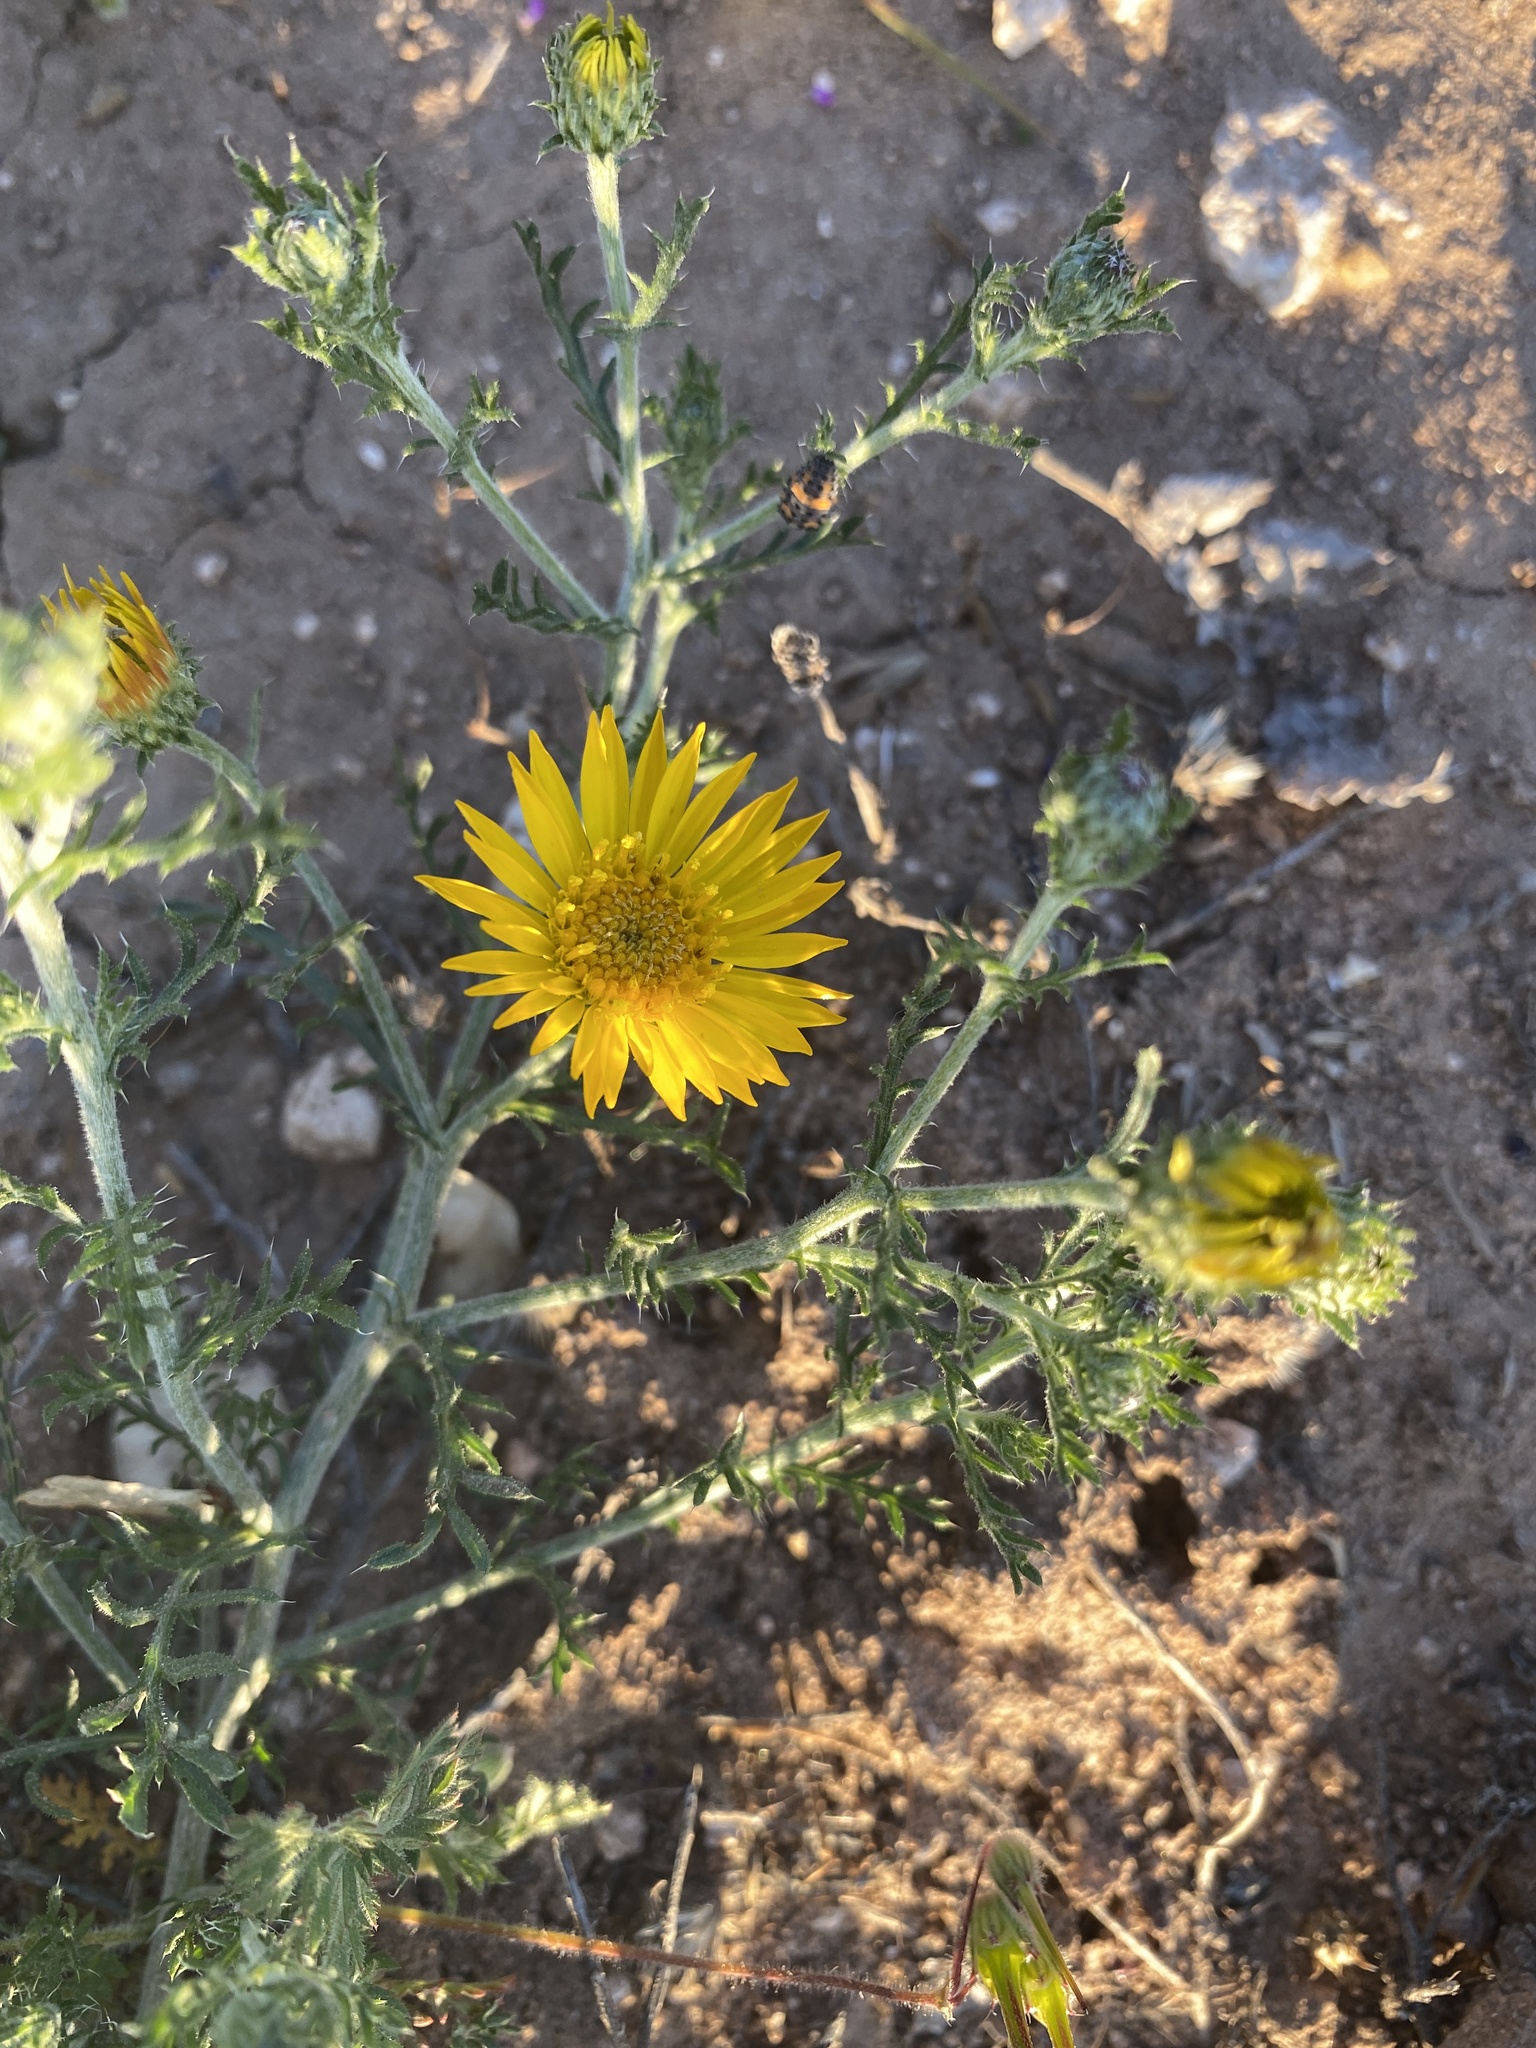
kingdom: Plantae
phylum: Tracheophyta
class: Magnoliopsida
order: Asterales
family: Asteraceae
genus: Xanthisma
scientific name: Xanthisma spinulosum
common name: Spiny goldenweed
